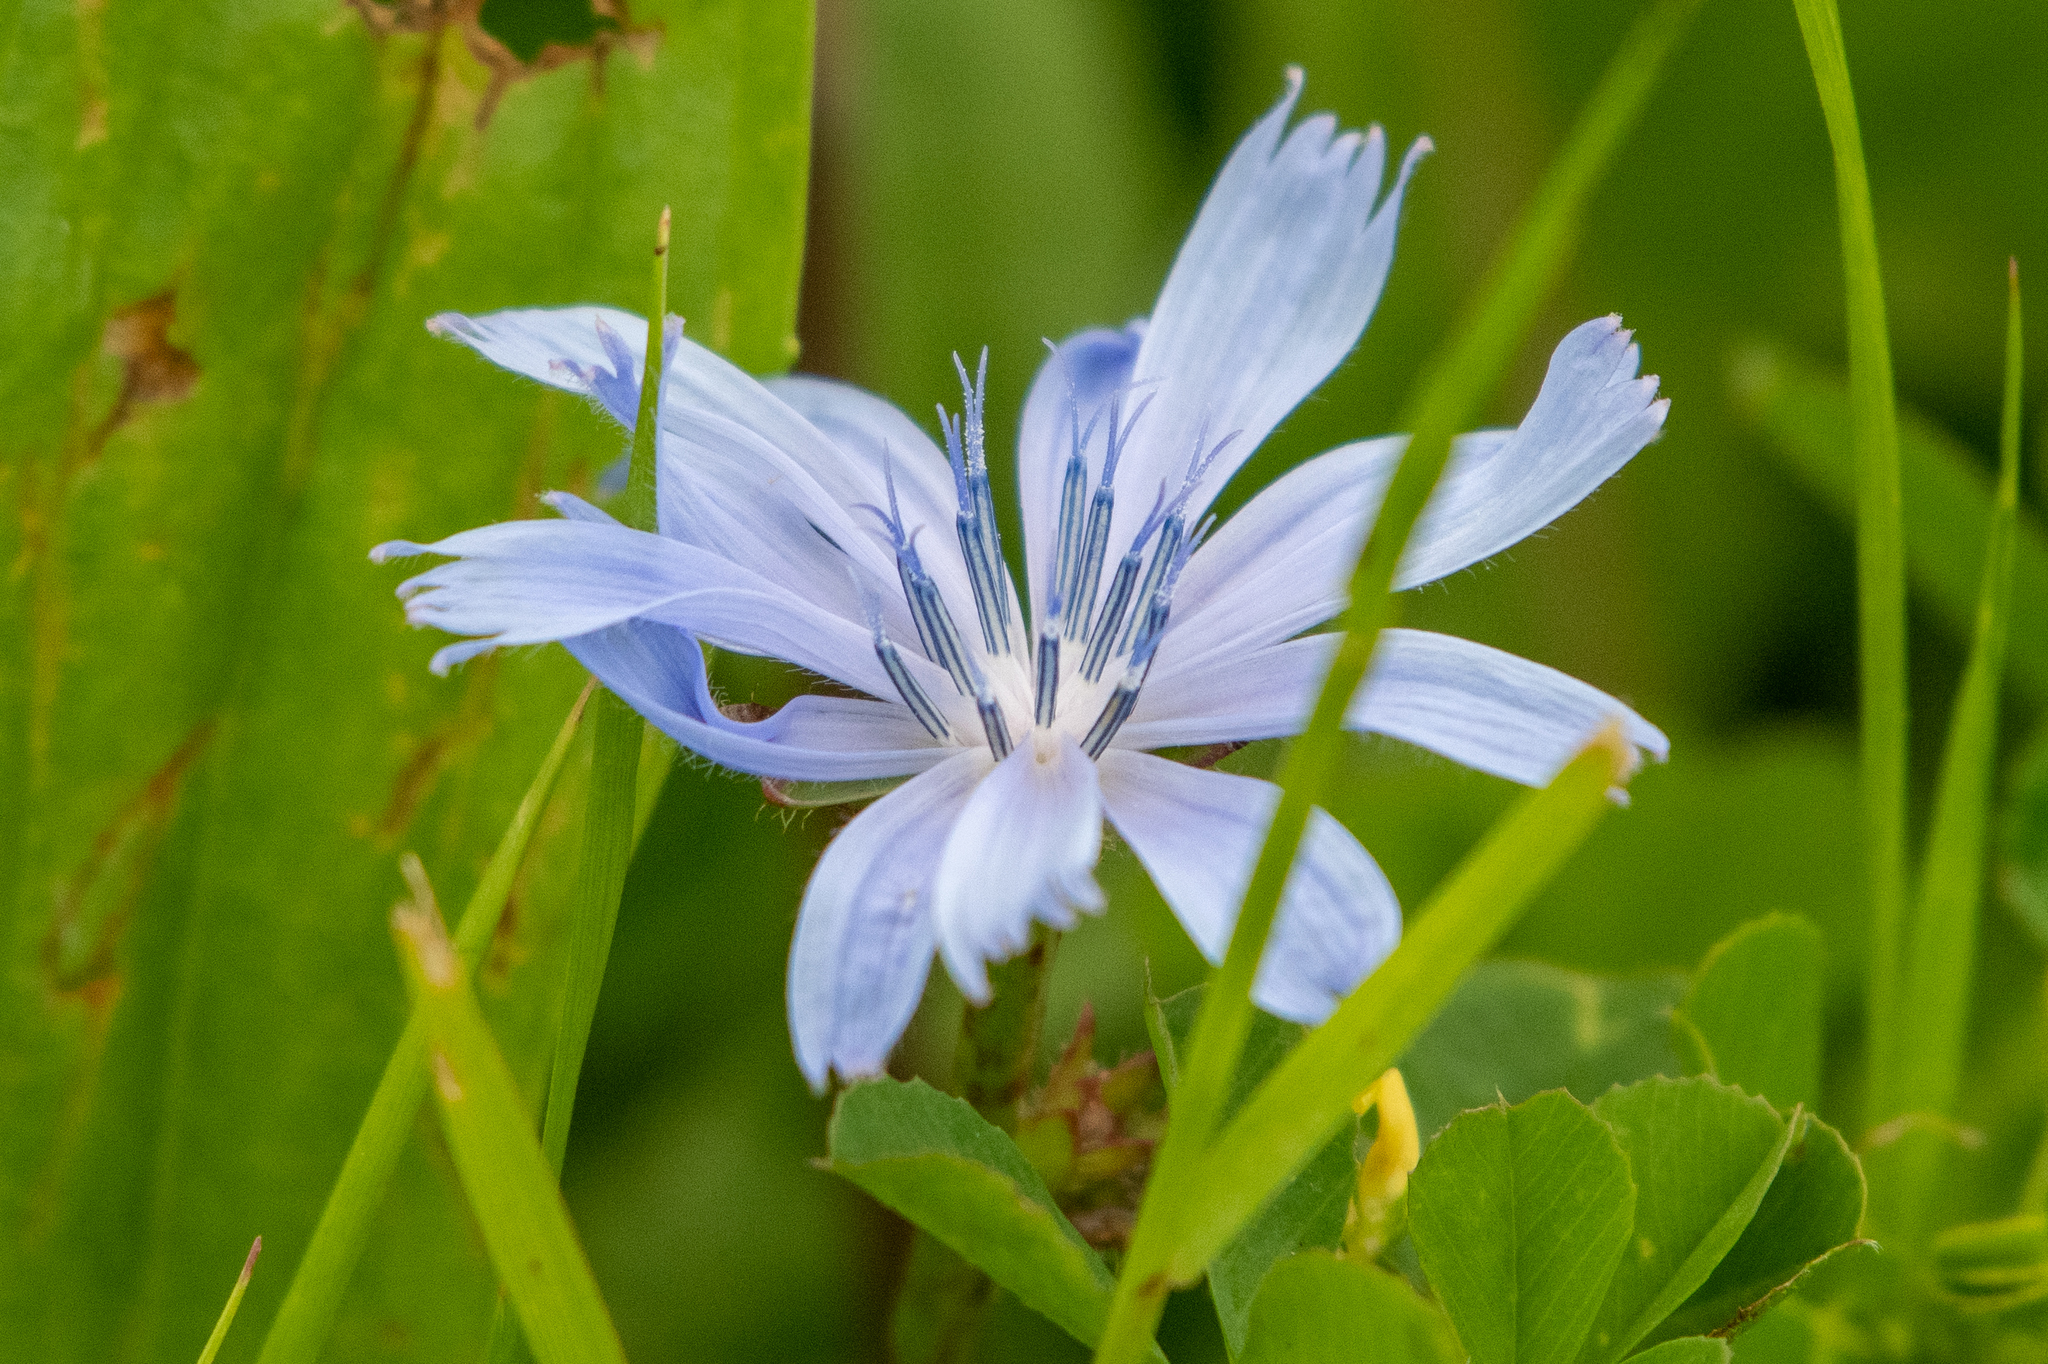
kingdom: Plantae
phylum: Tracheophyta
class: Magnoliopsida
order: Asterales
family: Asteraceae
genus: Cichorium
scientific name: Cichorium intybus
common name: Chicory
